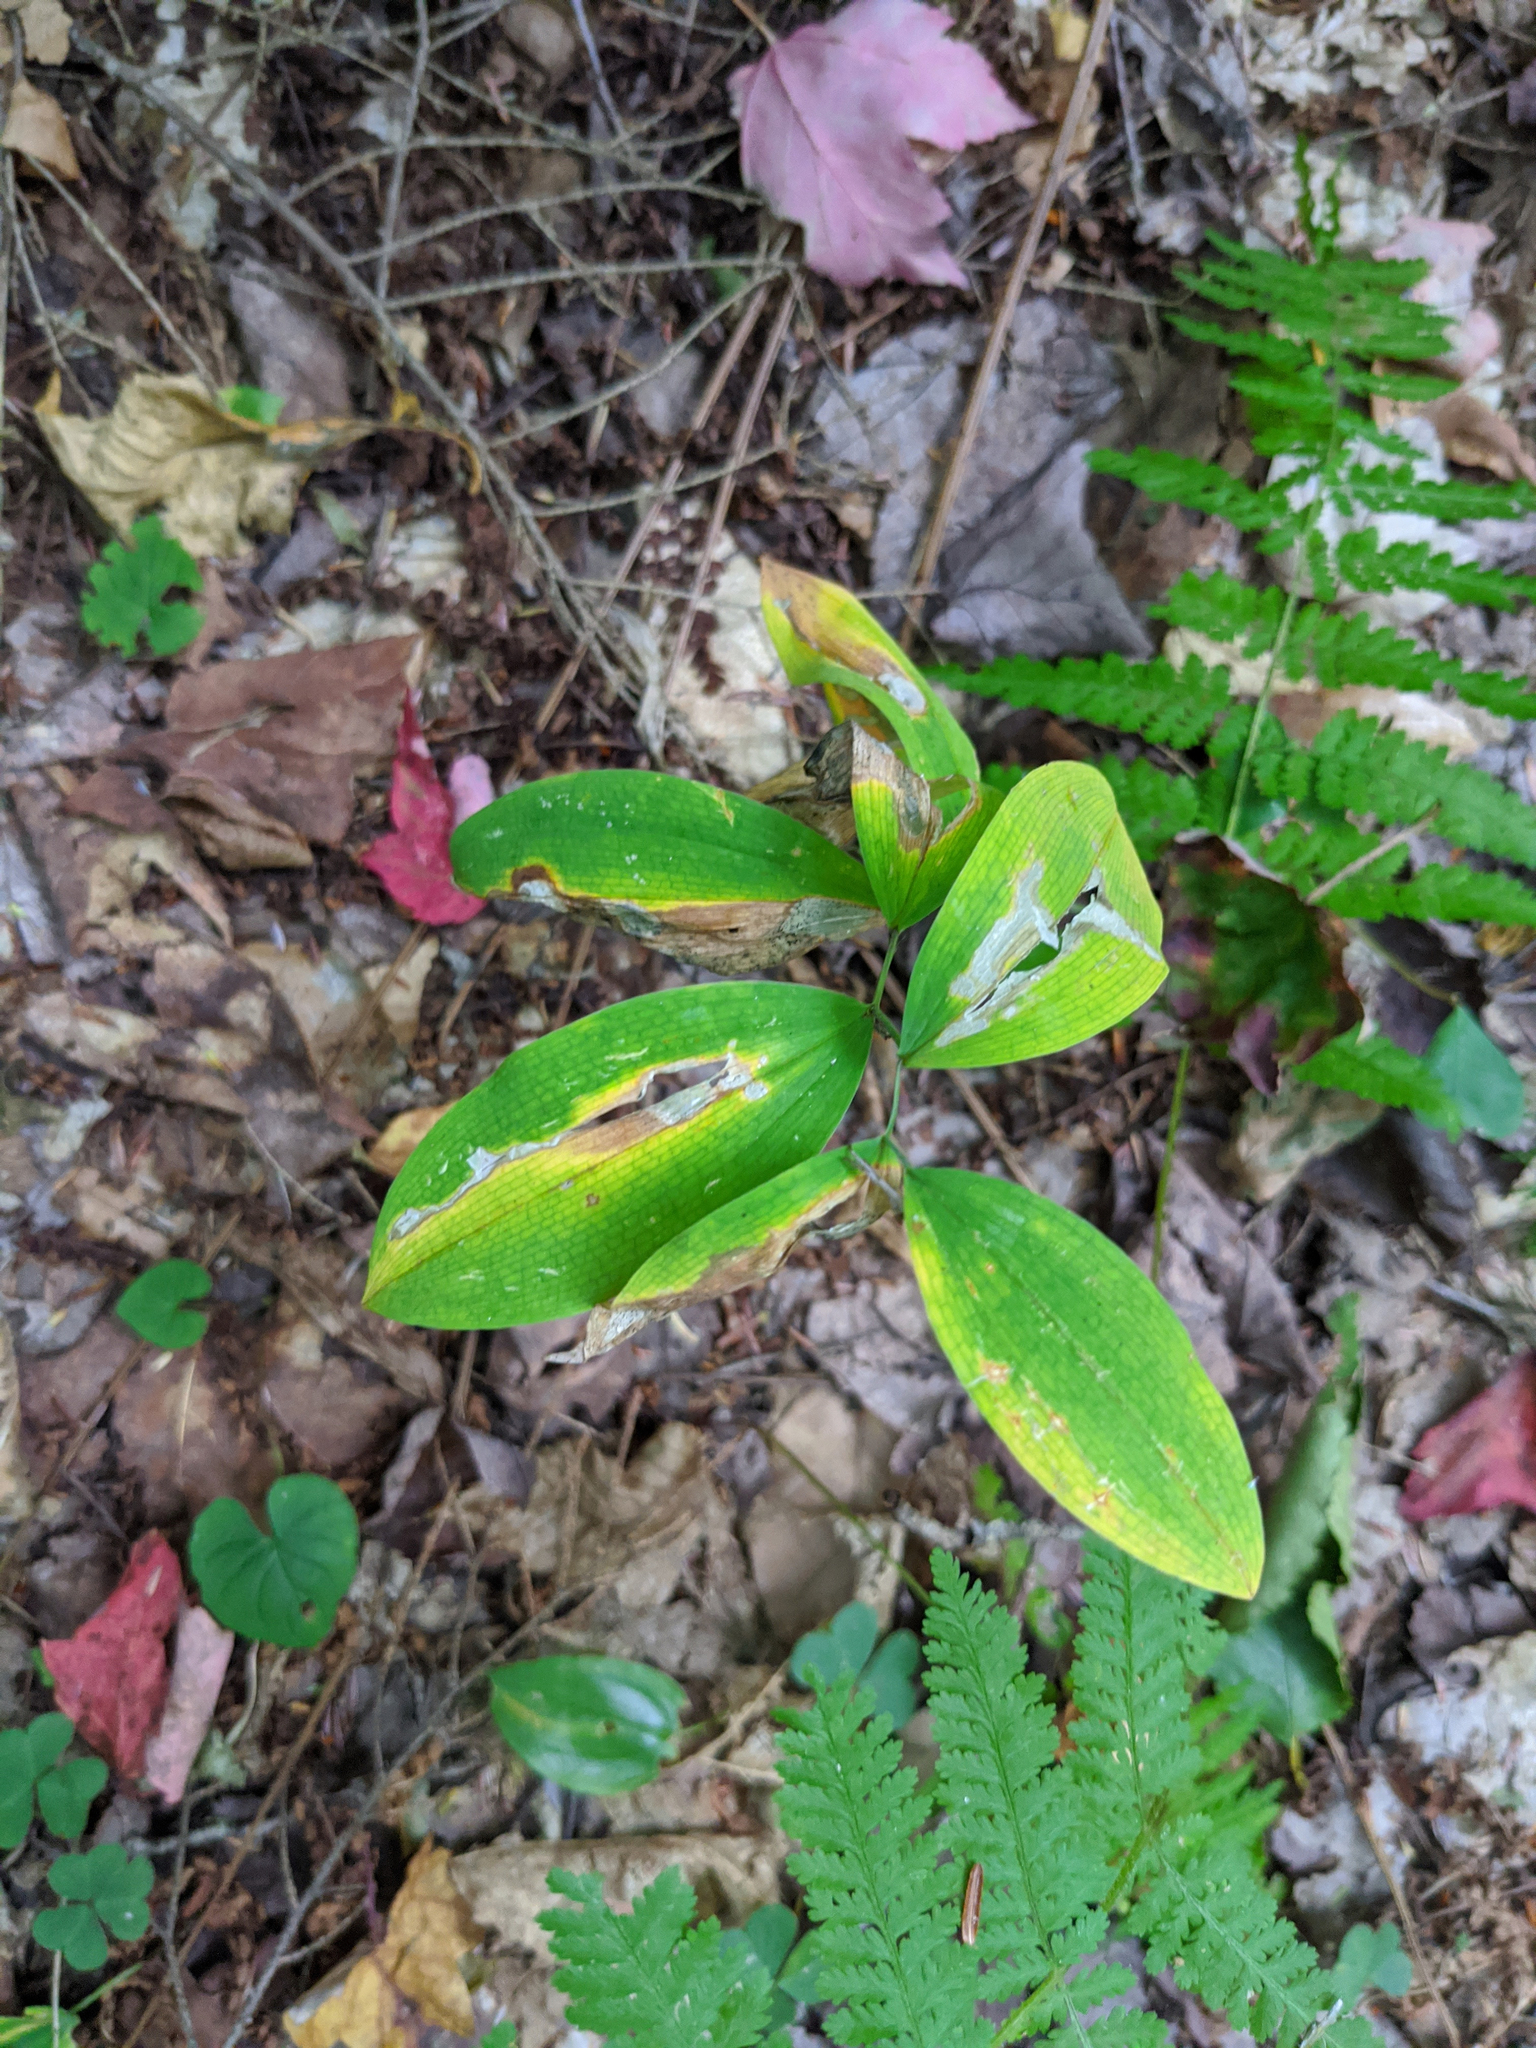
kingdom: Plantae
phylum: Tracheophyta
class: Liliopsida
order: Liliales
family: Colchicaceae
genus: Uvularia
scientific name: Uvularia sessilifolia
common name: Straw-lily
